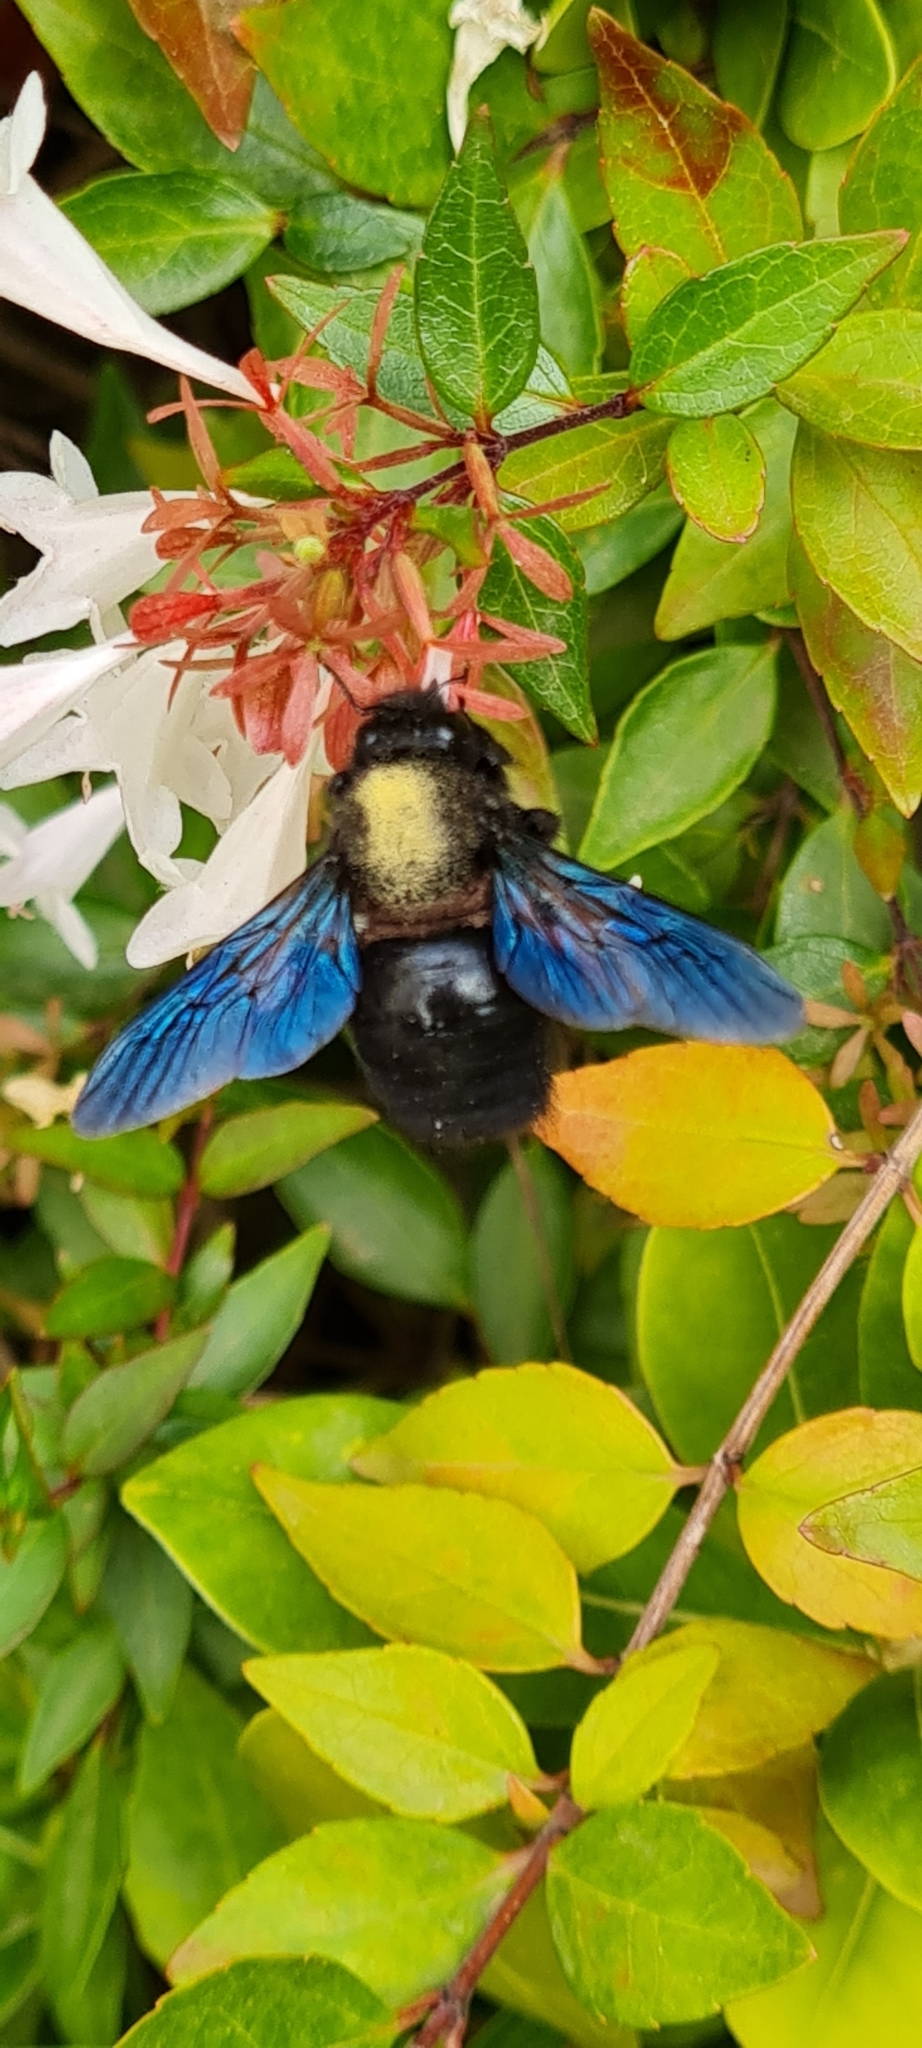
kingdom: Animalia
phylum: Arthropoda
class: Insecta
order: Hymenoptera
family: Apidae
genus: Xylocopa
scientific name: Xylocopa violacea
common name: Violet carpenter bee
